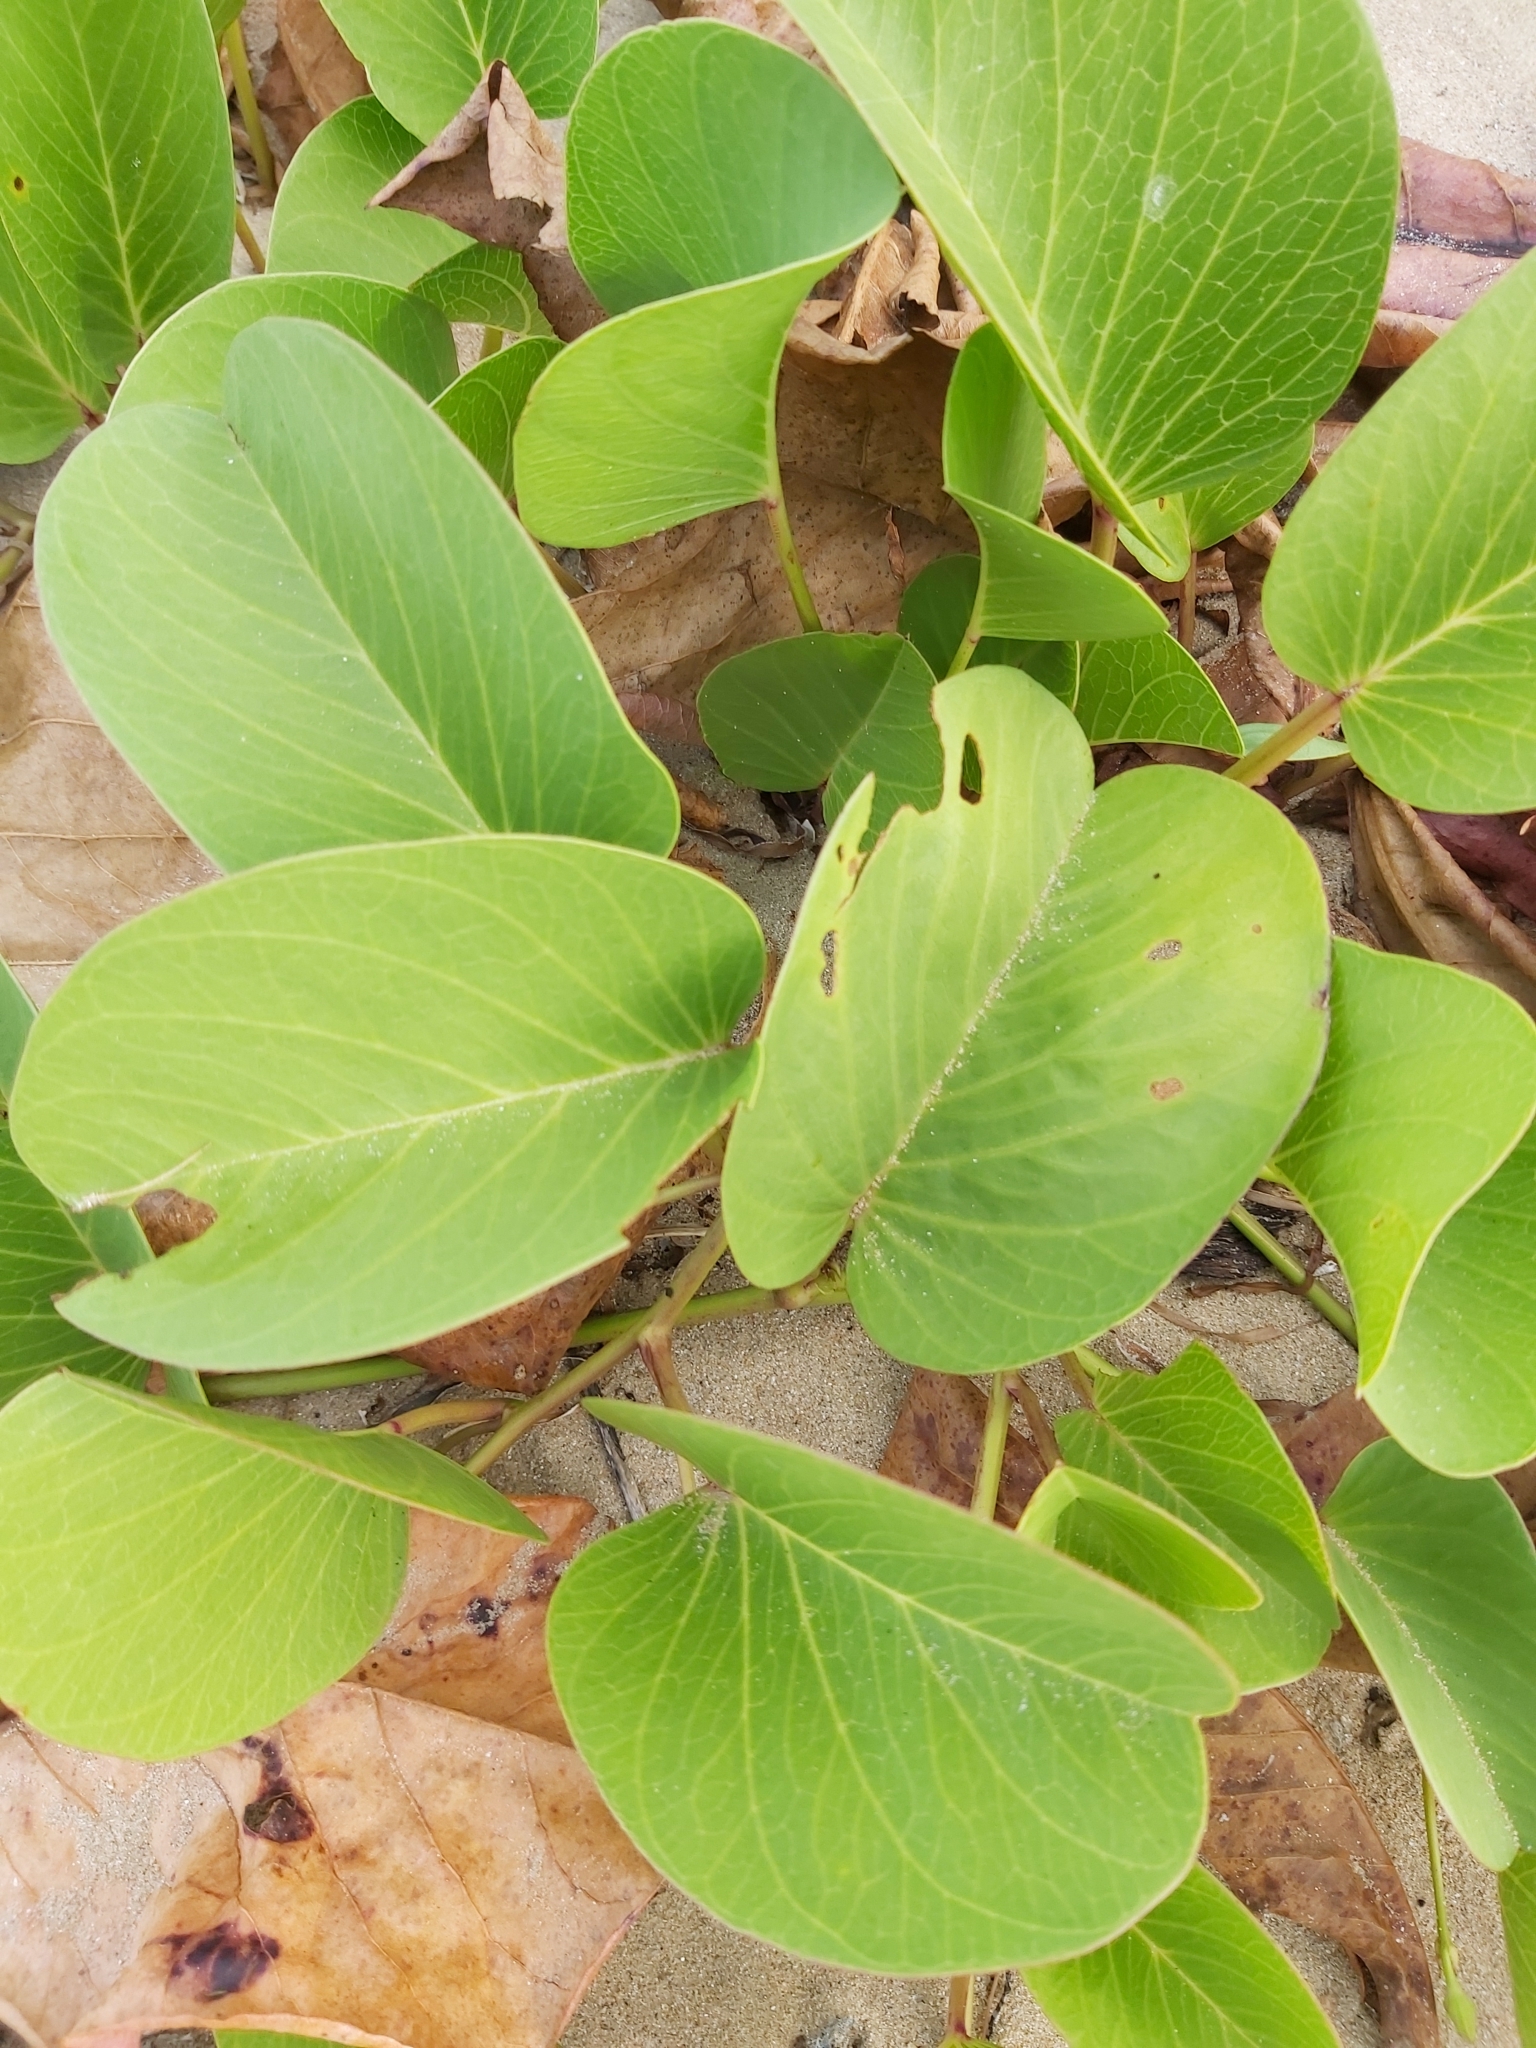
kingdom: Plantae
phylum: Tracheophyta
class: Magnoliopsida
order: Solanales
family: Convolvulaceae
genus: Ipomoea
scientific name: Ipomoea pes-caprae
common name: Beach morning glory
